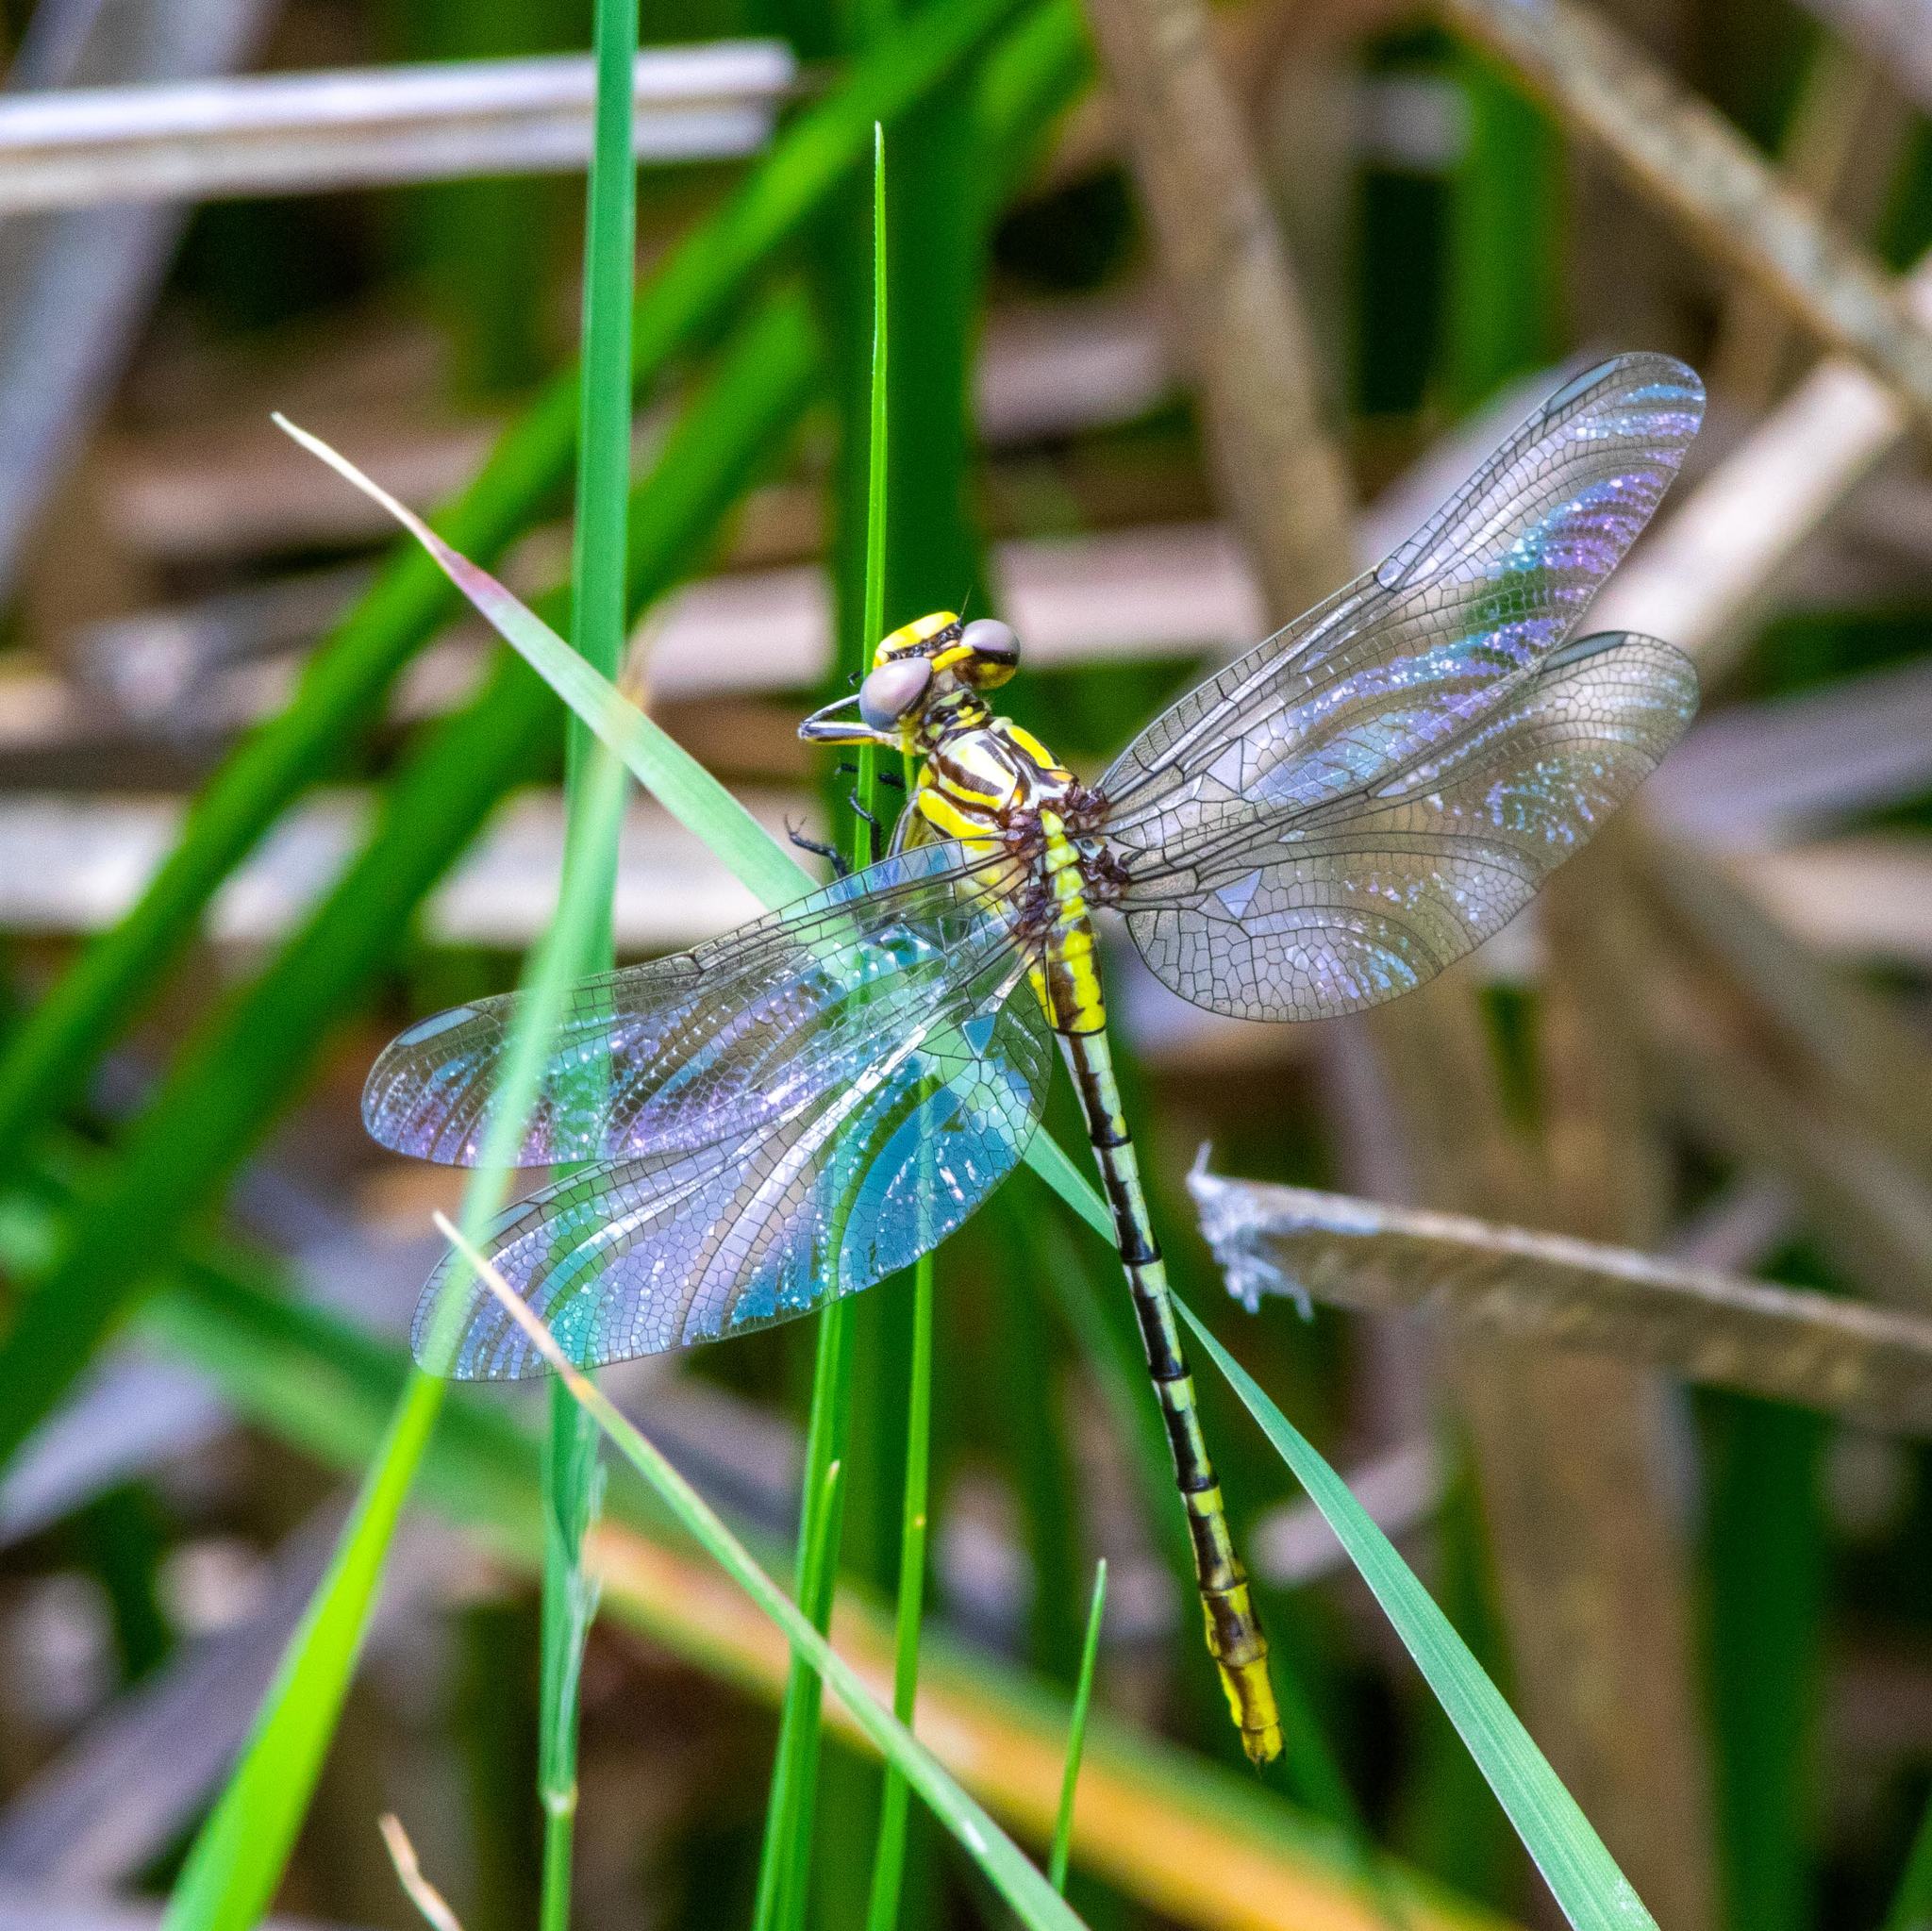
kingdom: Animalia
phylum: Arthropoda
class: Insecta
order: Odonata
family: Gomphidae
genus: Phanogomphus
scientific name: Phanogomphus militaris
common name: Sulphur-tipped clubtail
